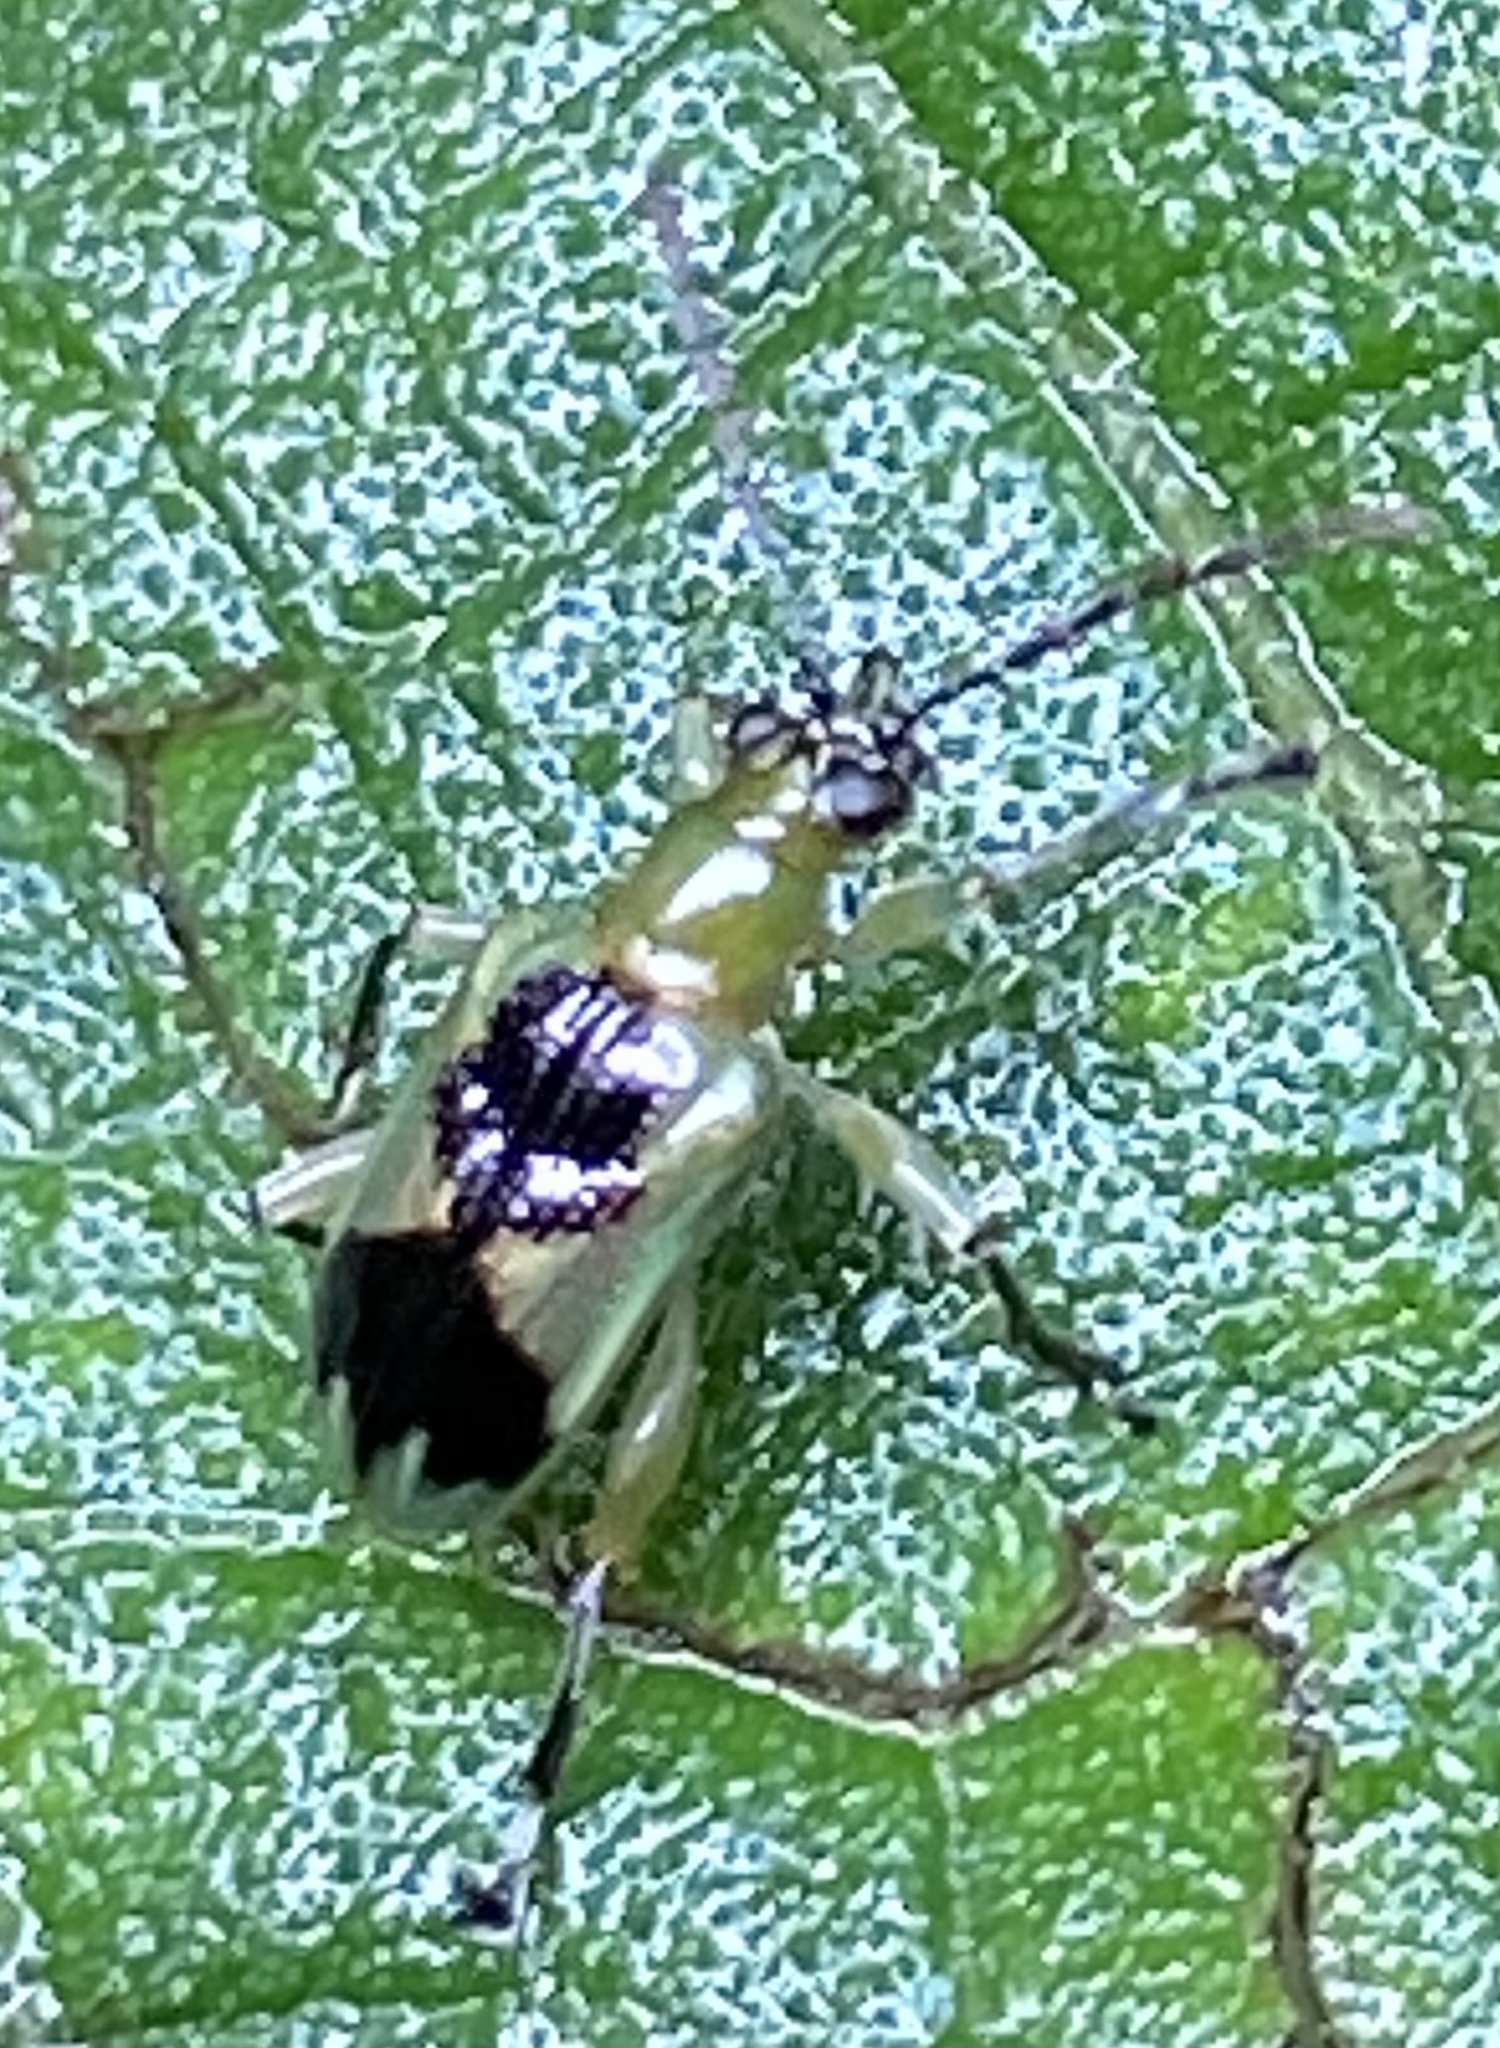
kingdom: Animalia
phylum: Arthropoda
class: Insecta
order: Coleoptera
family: Chrysomelidae
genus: Neolema
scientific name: Neolema
